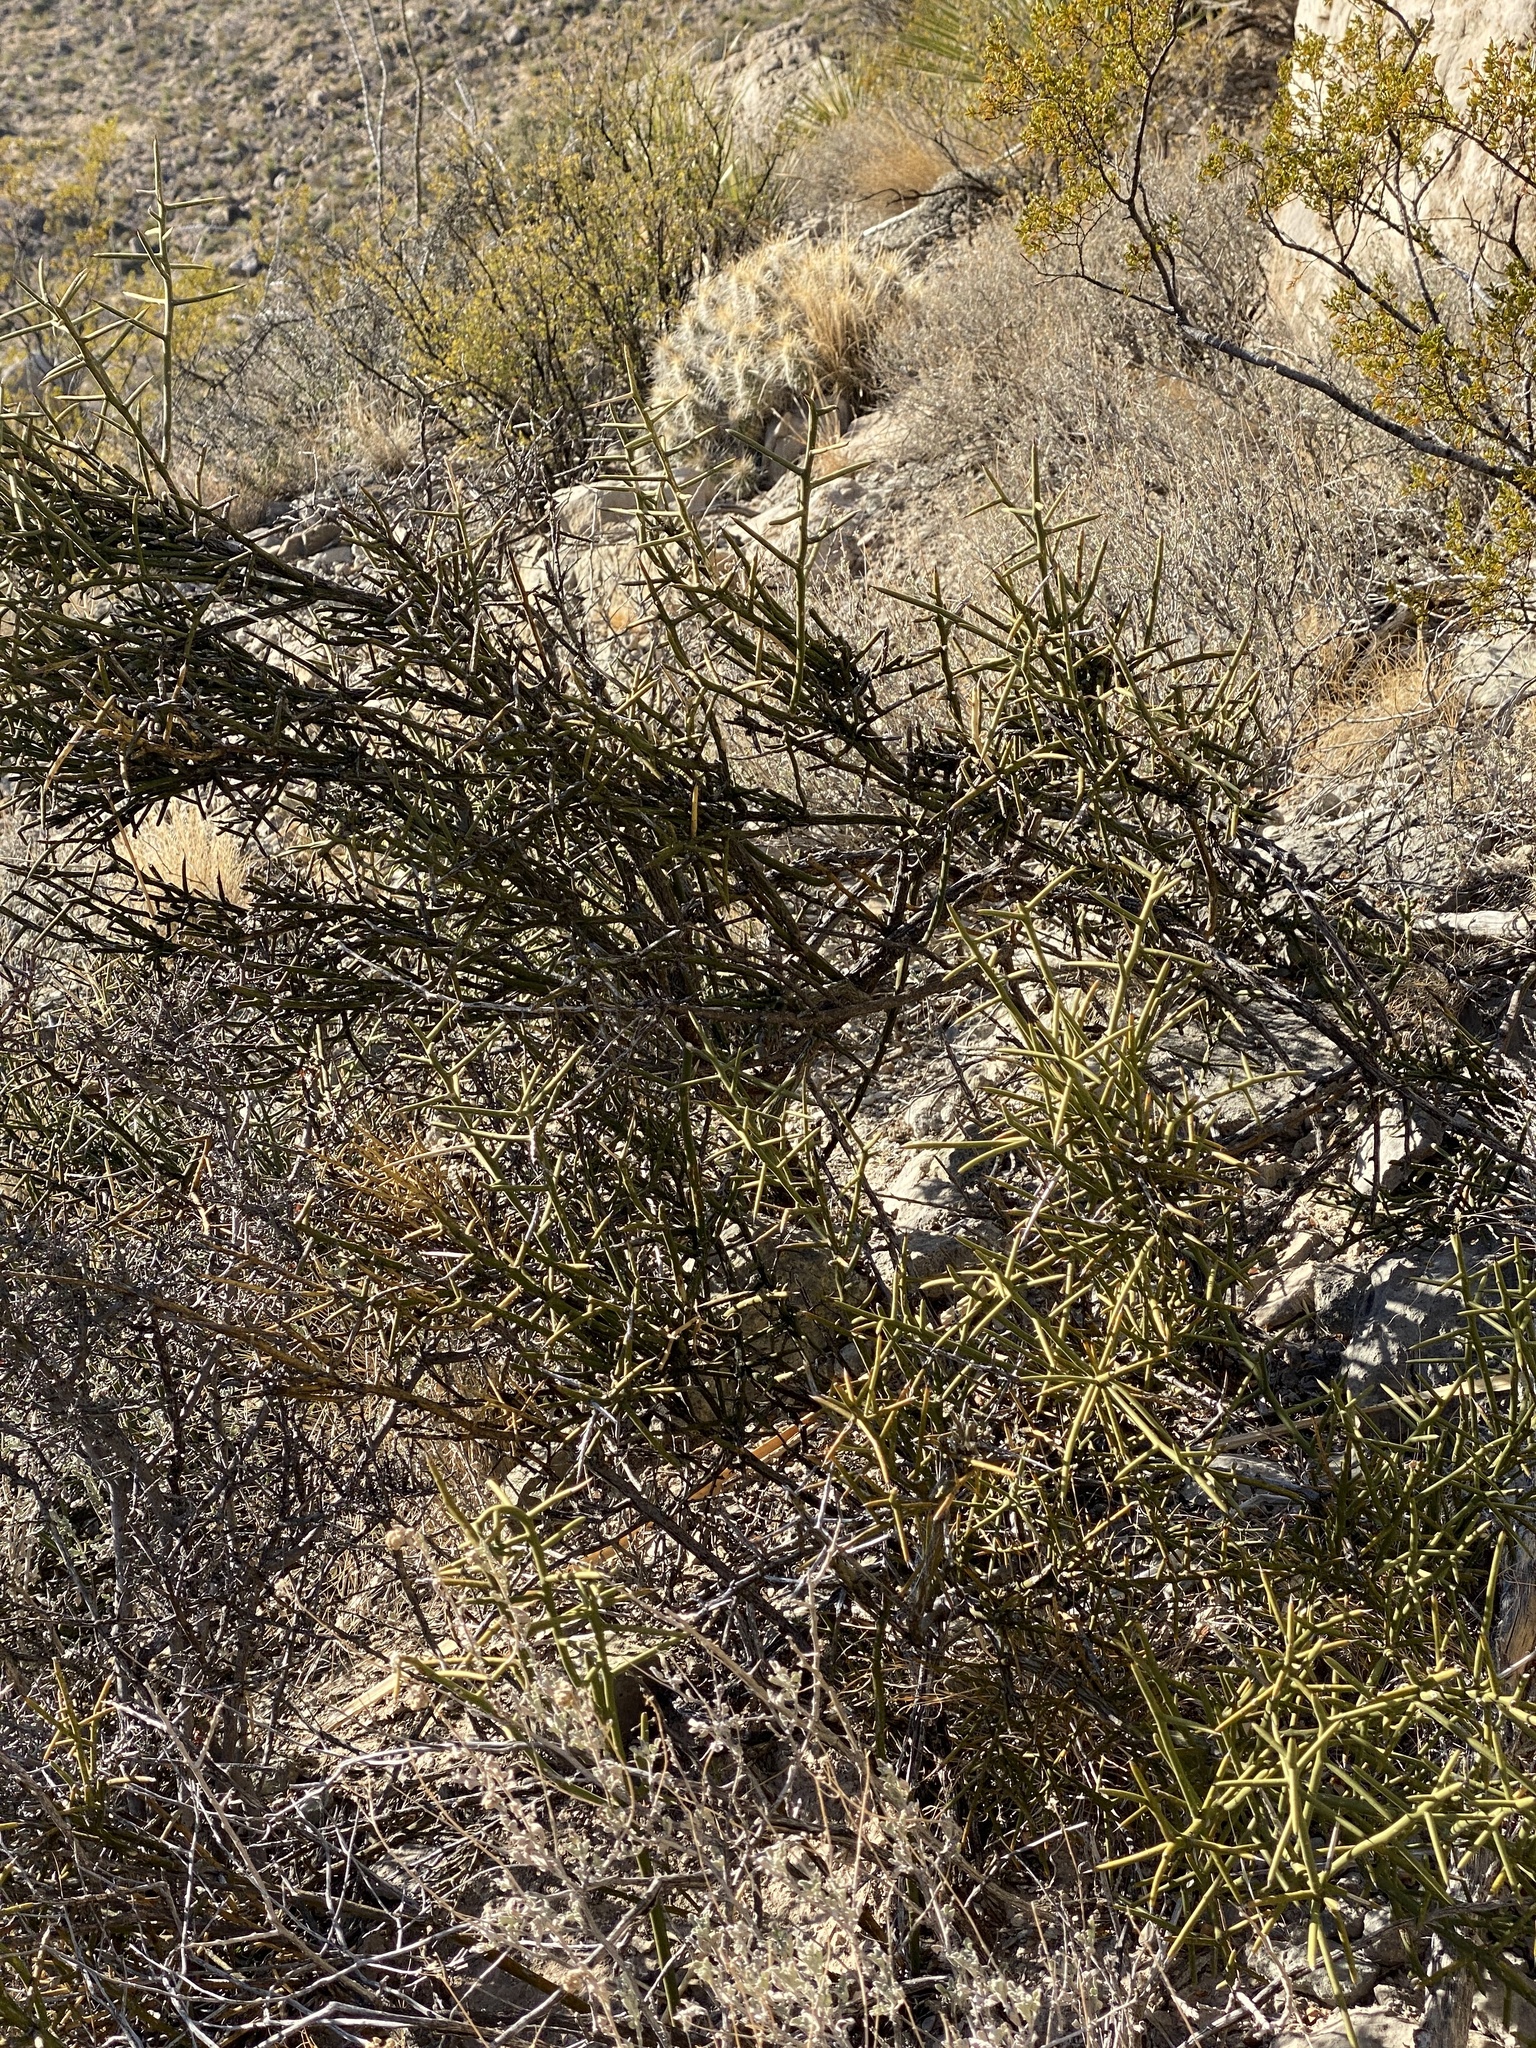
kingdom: Plantae
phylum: Tracheophyta
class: Magnoliopsida
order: Brassicales
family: Koeberliniaceae
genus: Koeberlinia
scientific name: Koeberlinia spinosa
